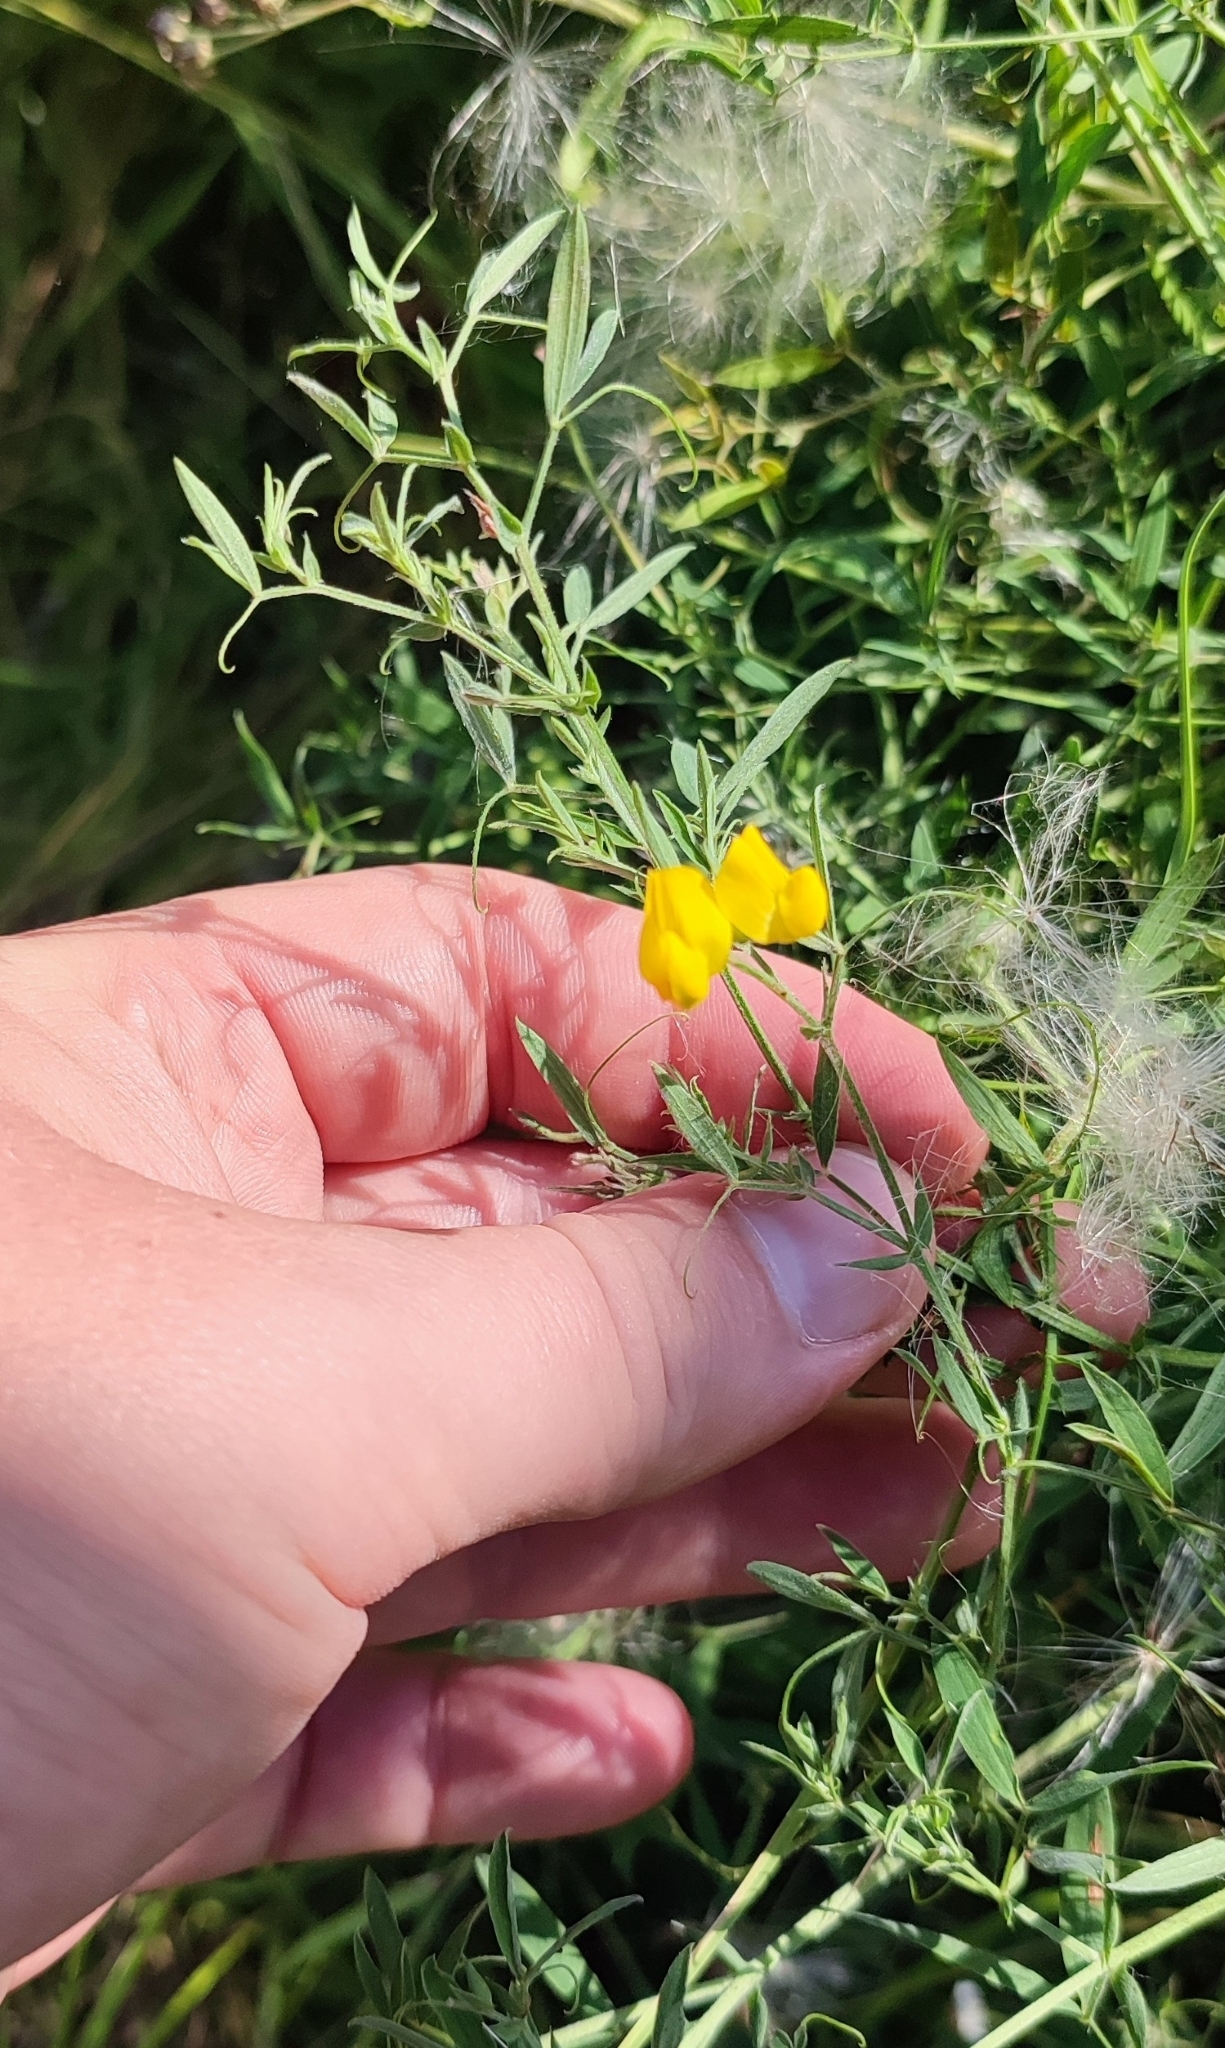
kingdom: Plantae
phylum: Tracheophyta
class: Magnoliopsida
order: Fabales
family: Fabaceae
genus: Lathyrus
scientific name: Lathyrus pratensis
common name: Meadow vetchling
